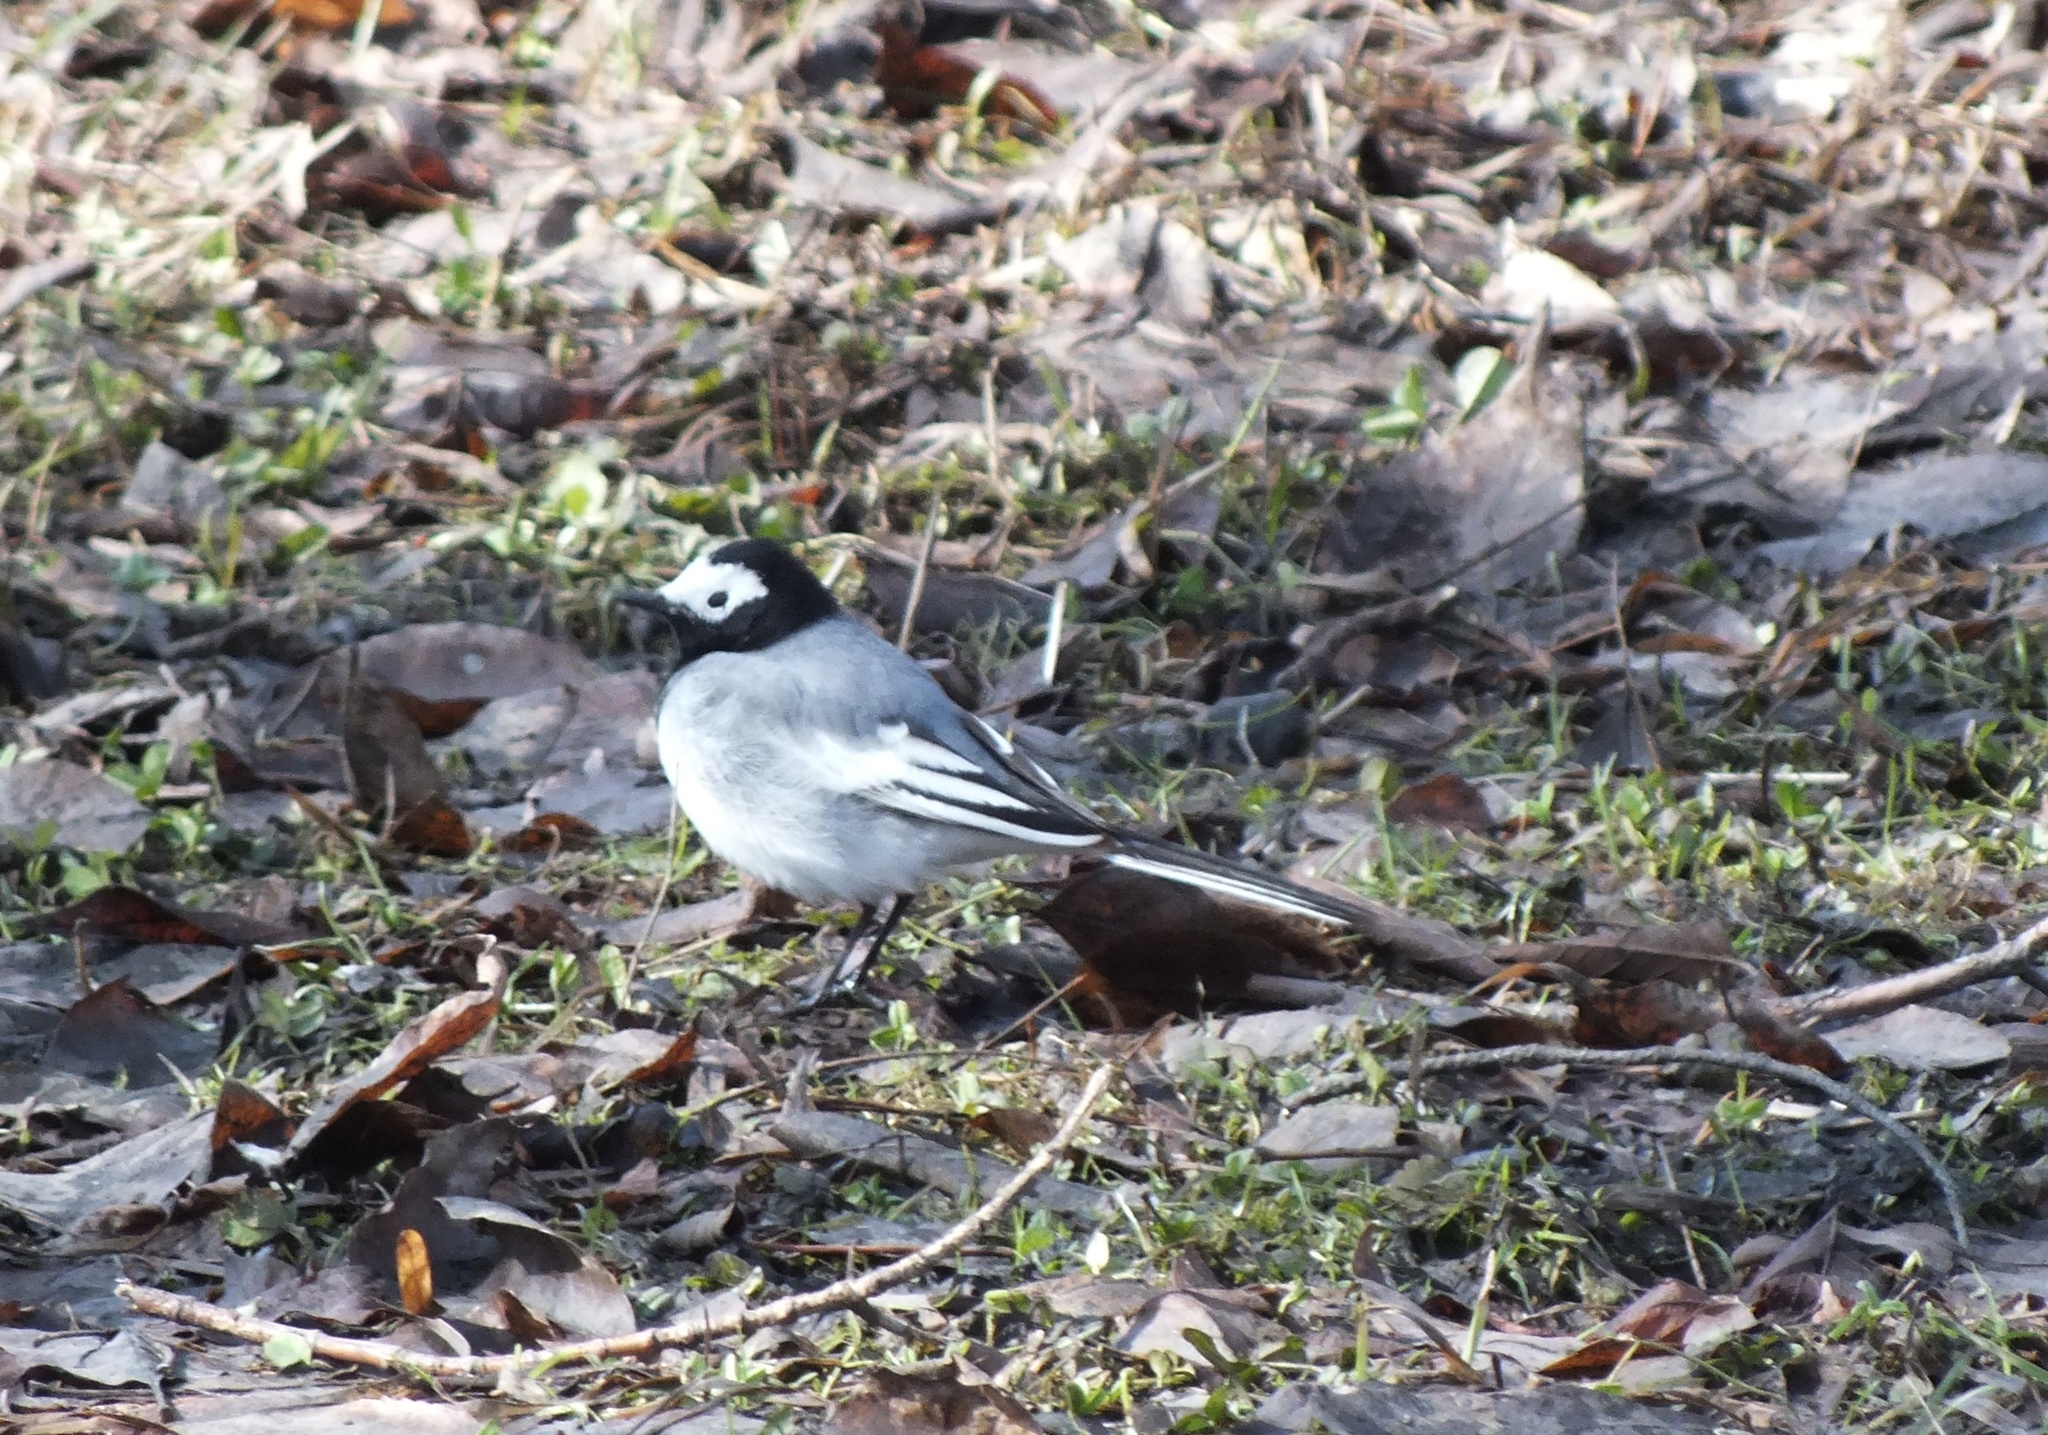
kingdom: Animalia
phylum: Chordata
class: Aves
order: Passeriformes
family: Motacillidae
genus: Motacilla
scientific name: Motacilla alba
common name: White wagtail
